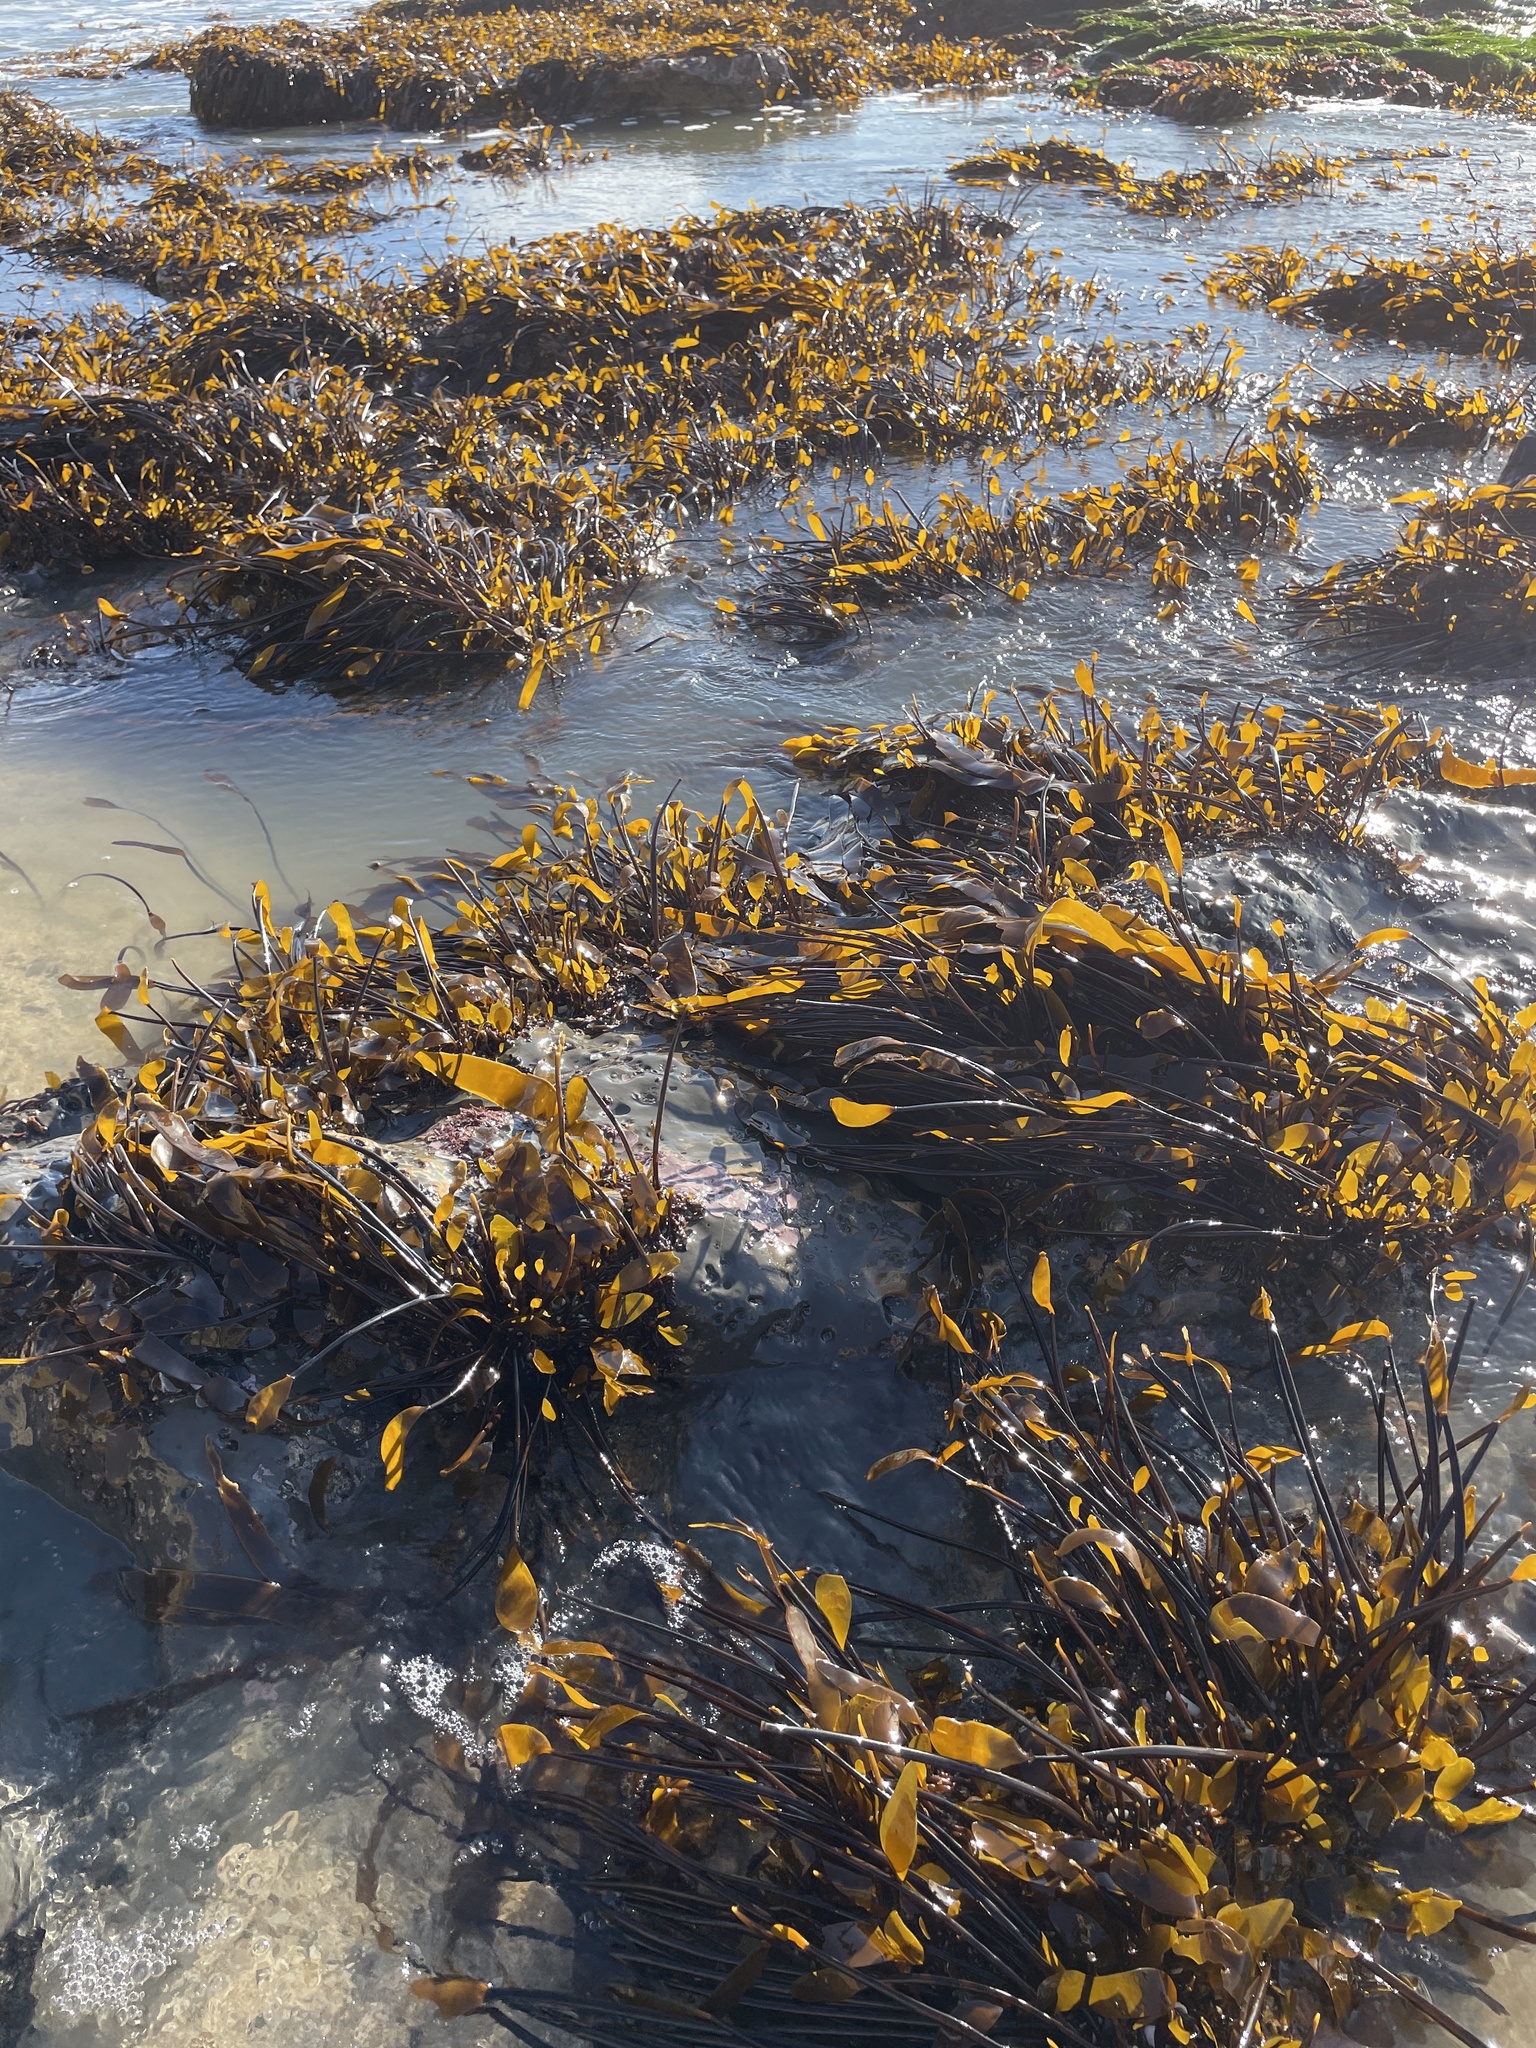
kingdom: Chromista
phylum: Ochrophyta
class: Phaeophyceae
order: Laminariales
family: Laminariaceae
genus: Laminaria
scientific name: Laminaria sinclairii
